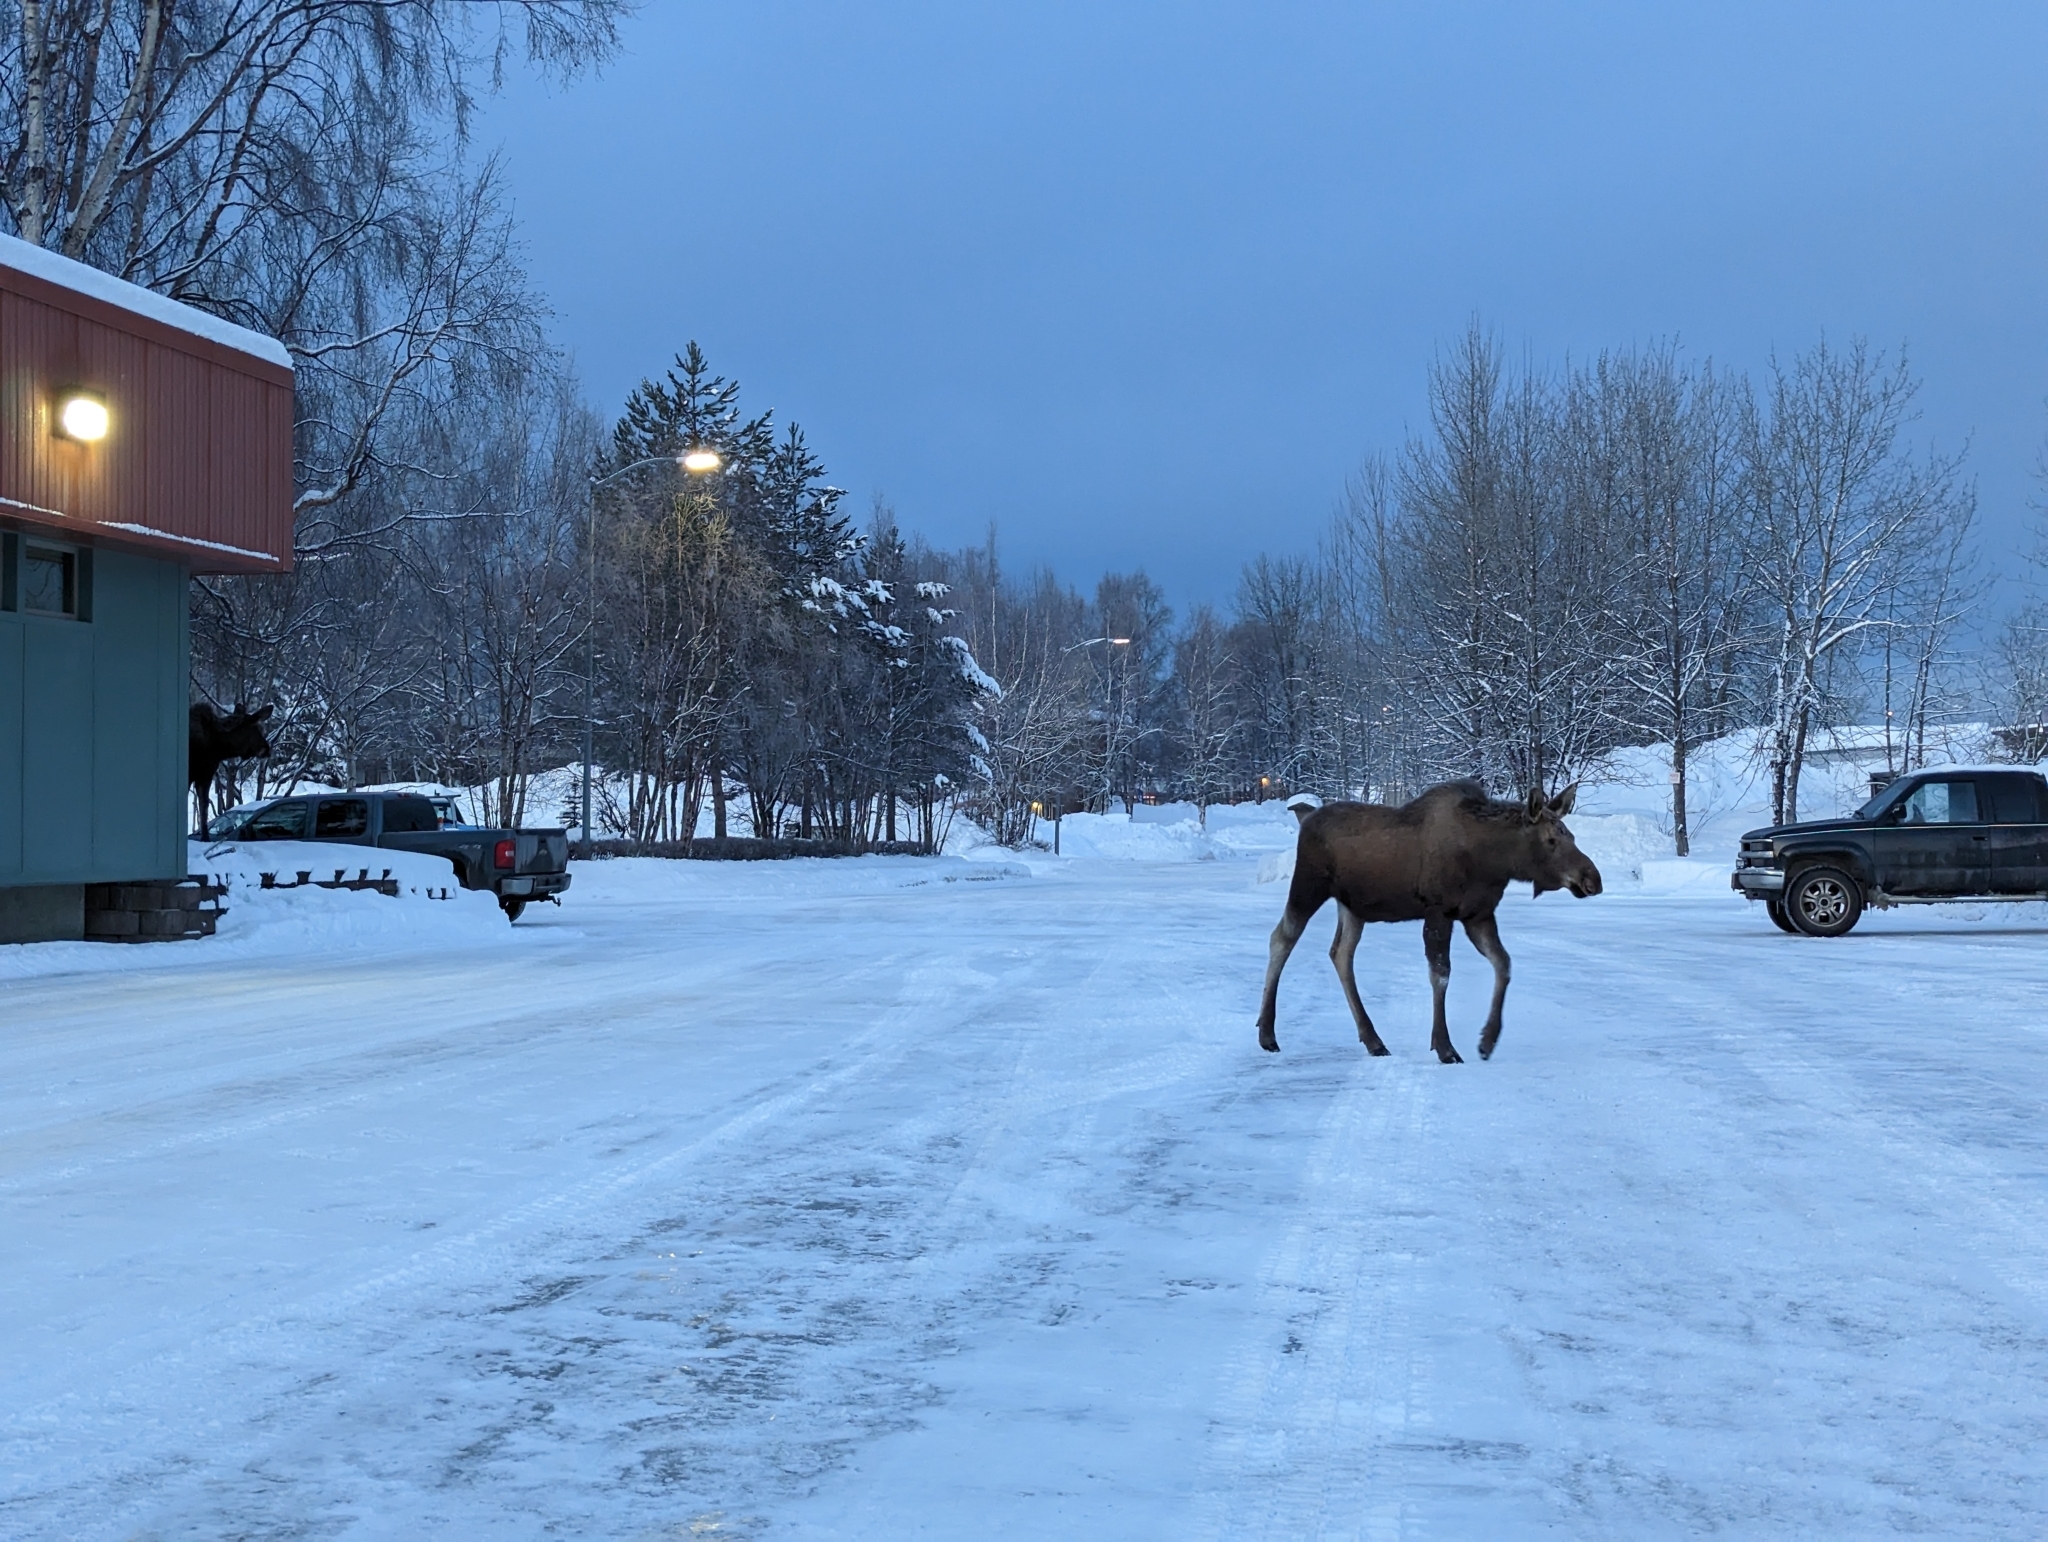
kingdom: Animalia
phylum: Chordata
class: Mammalia
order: Artiodactyla
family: Cervidae
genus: Alces
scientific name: Alces alces
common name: Moose
